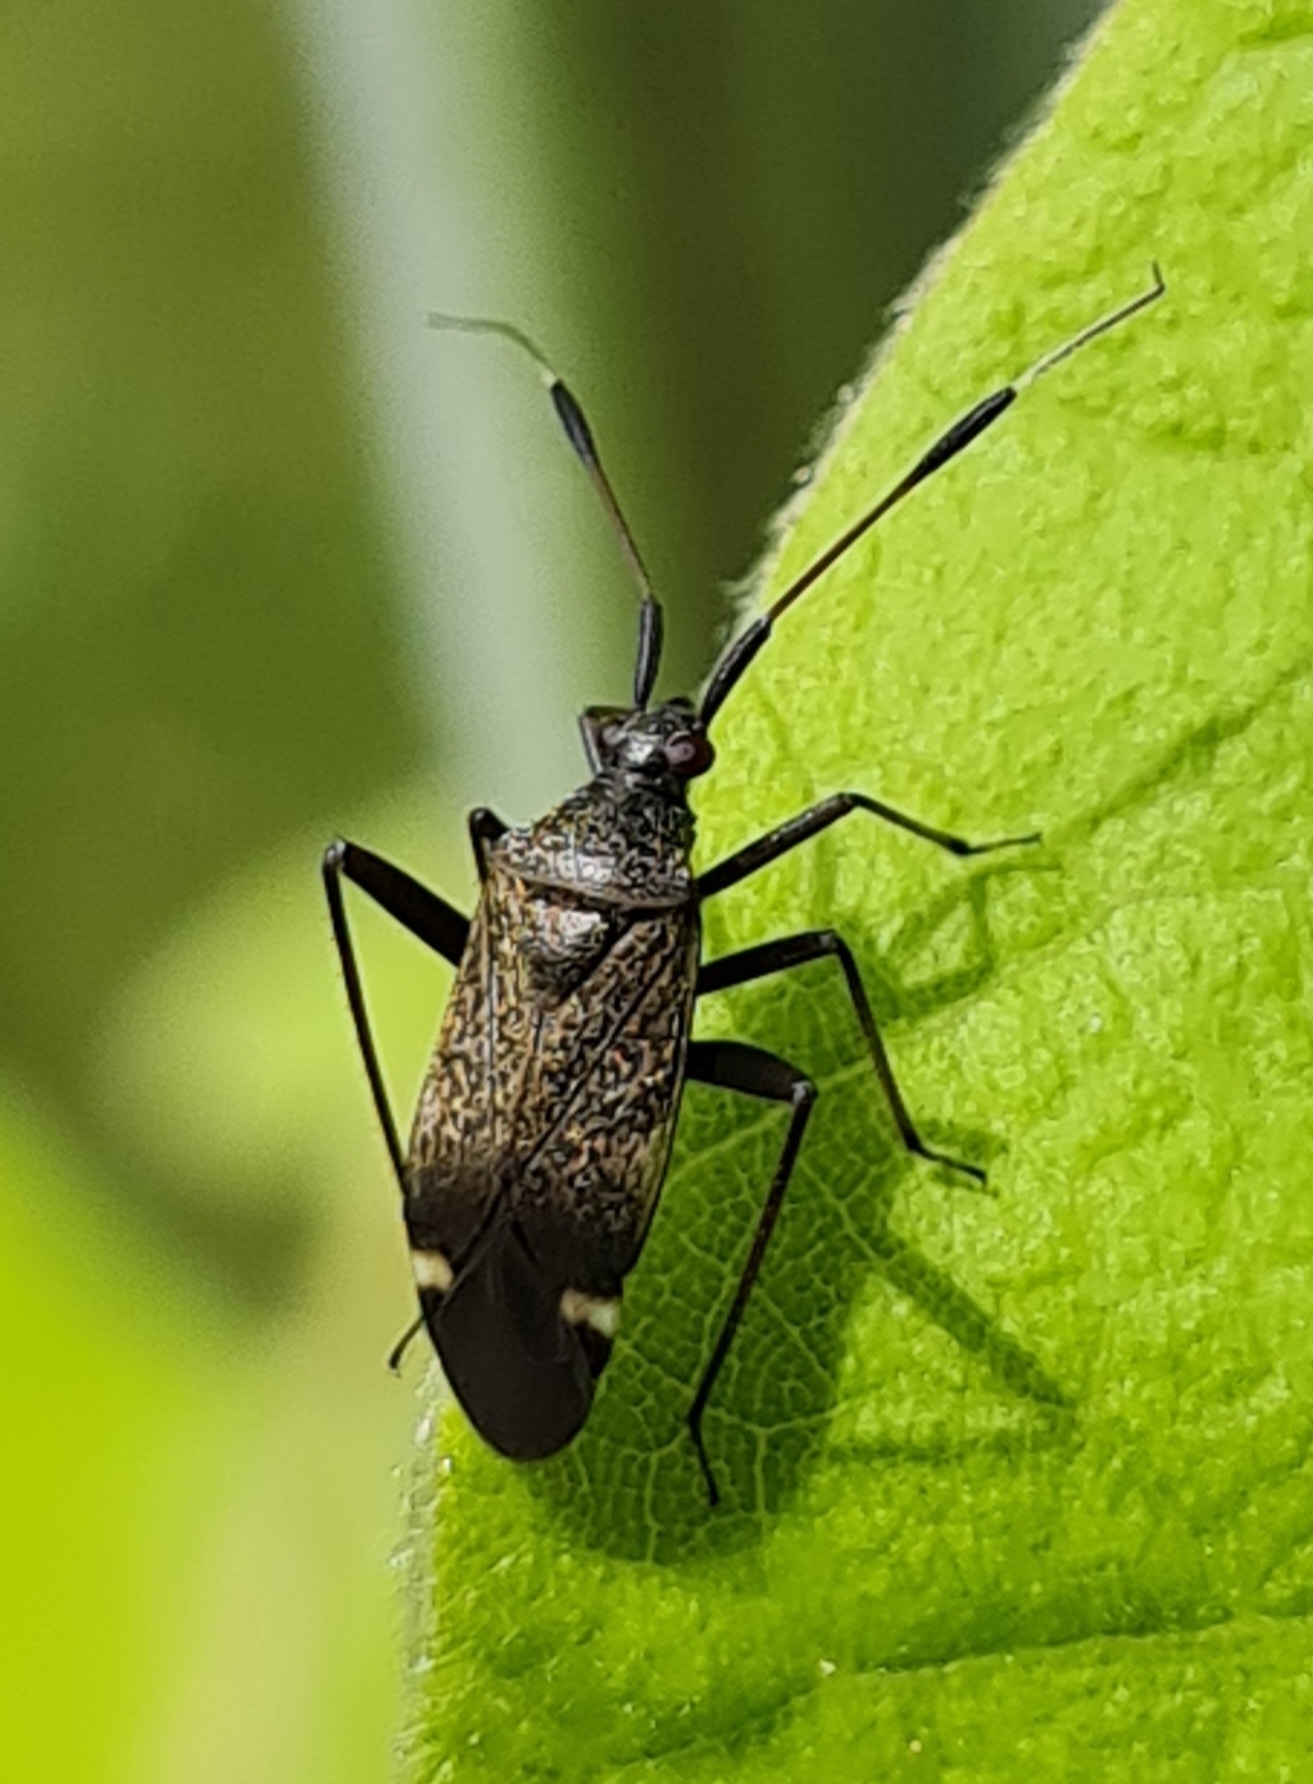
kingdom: Animalia
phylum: Arthropoda
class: Insecta
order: Hemiptera
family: Miridae
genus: Closterotomus
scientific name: Closterotomus biclavatus
